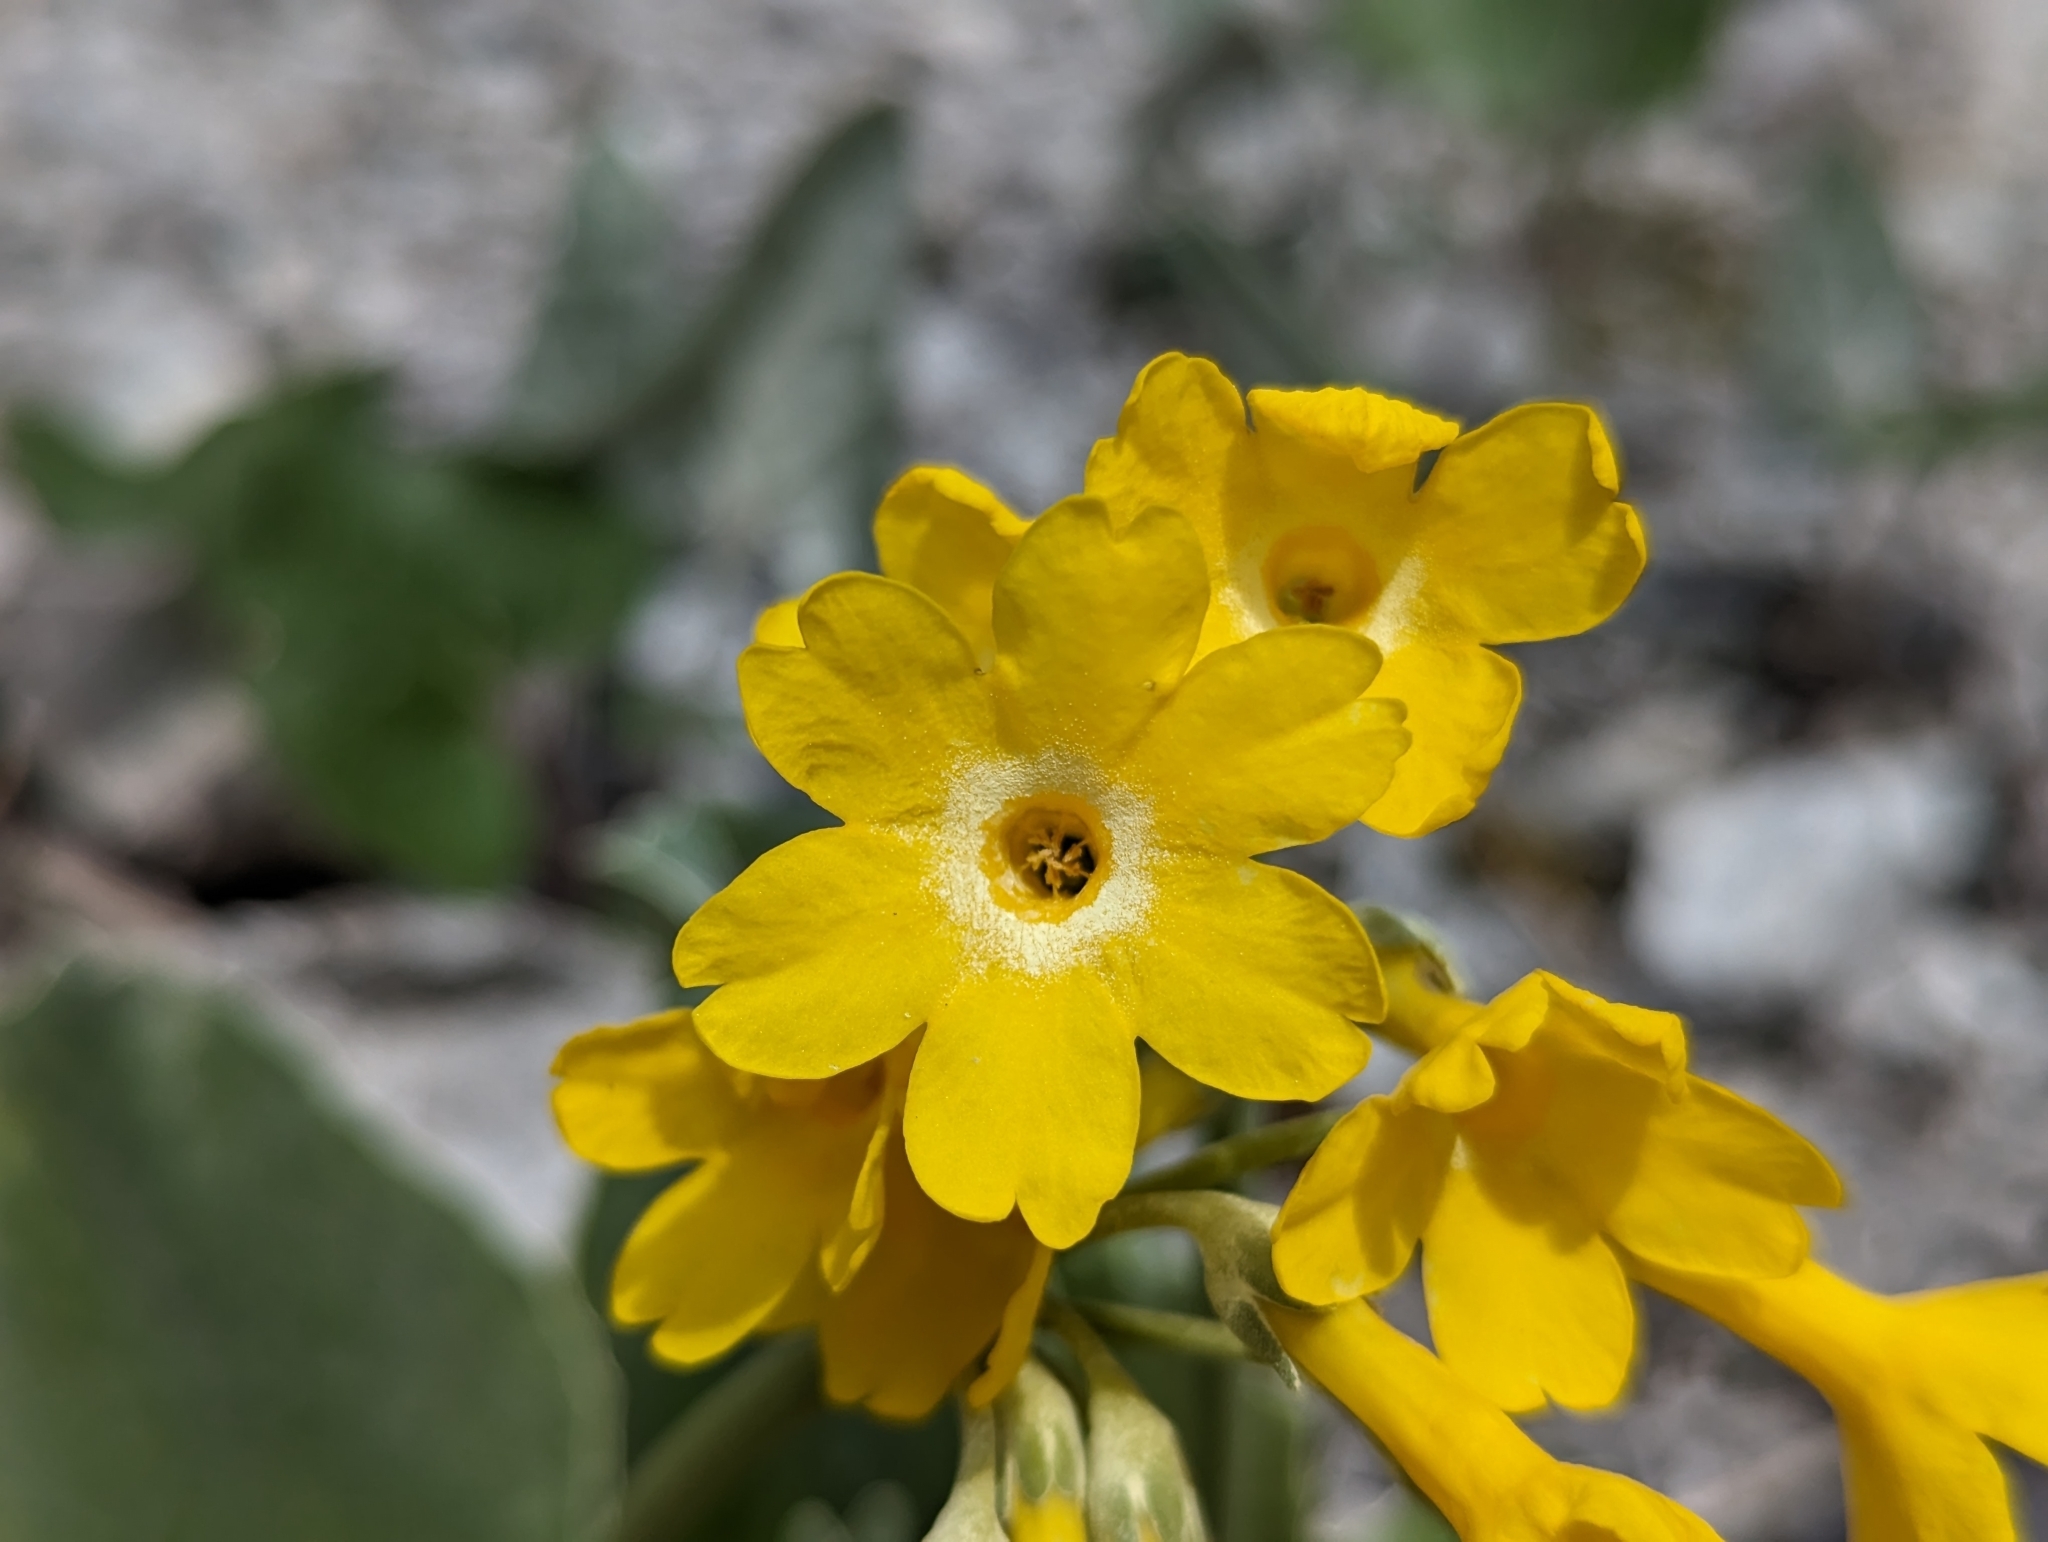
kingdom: Plantae
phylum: Tracheophyta
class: Magnoliopsida
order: Ericales
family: Primulaceae
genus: Primula
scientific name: Primula auricula
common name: Auricula
